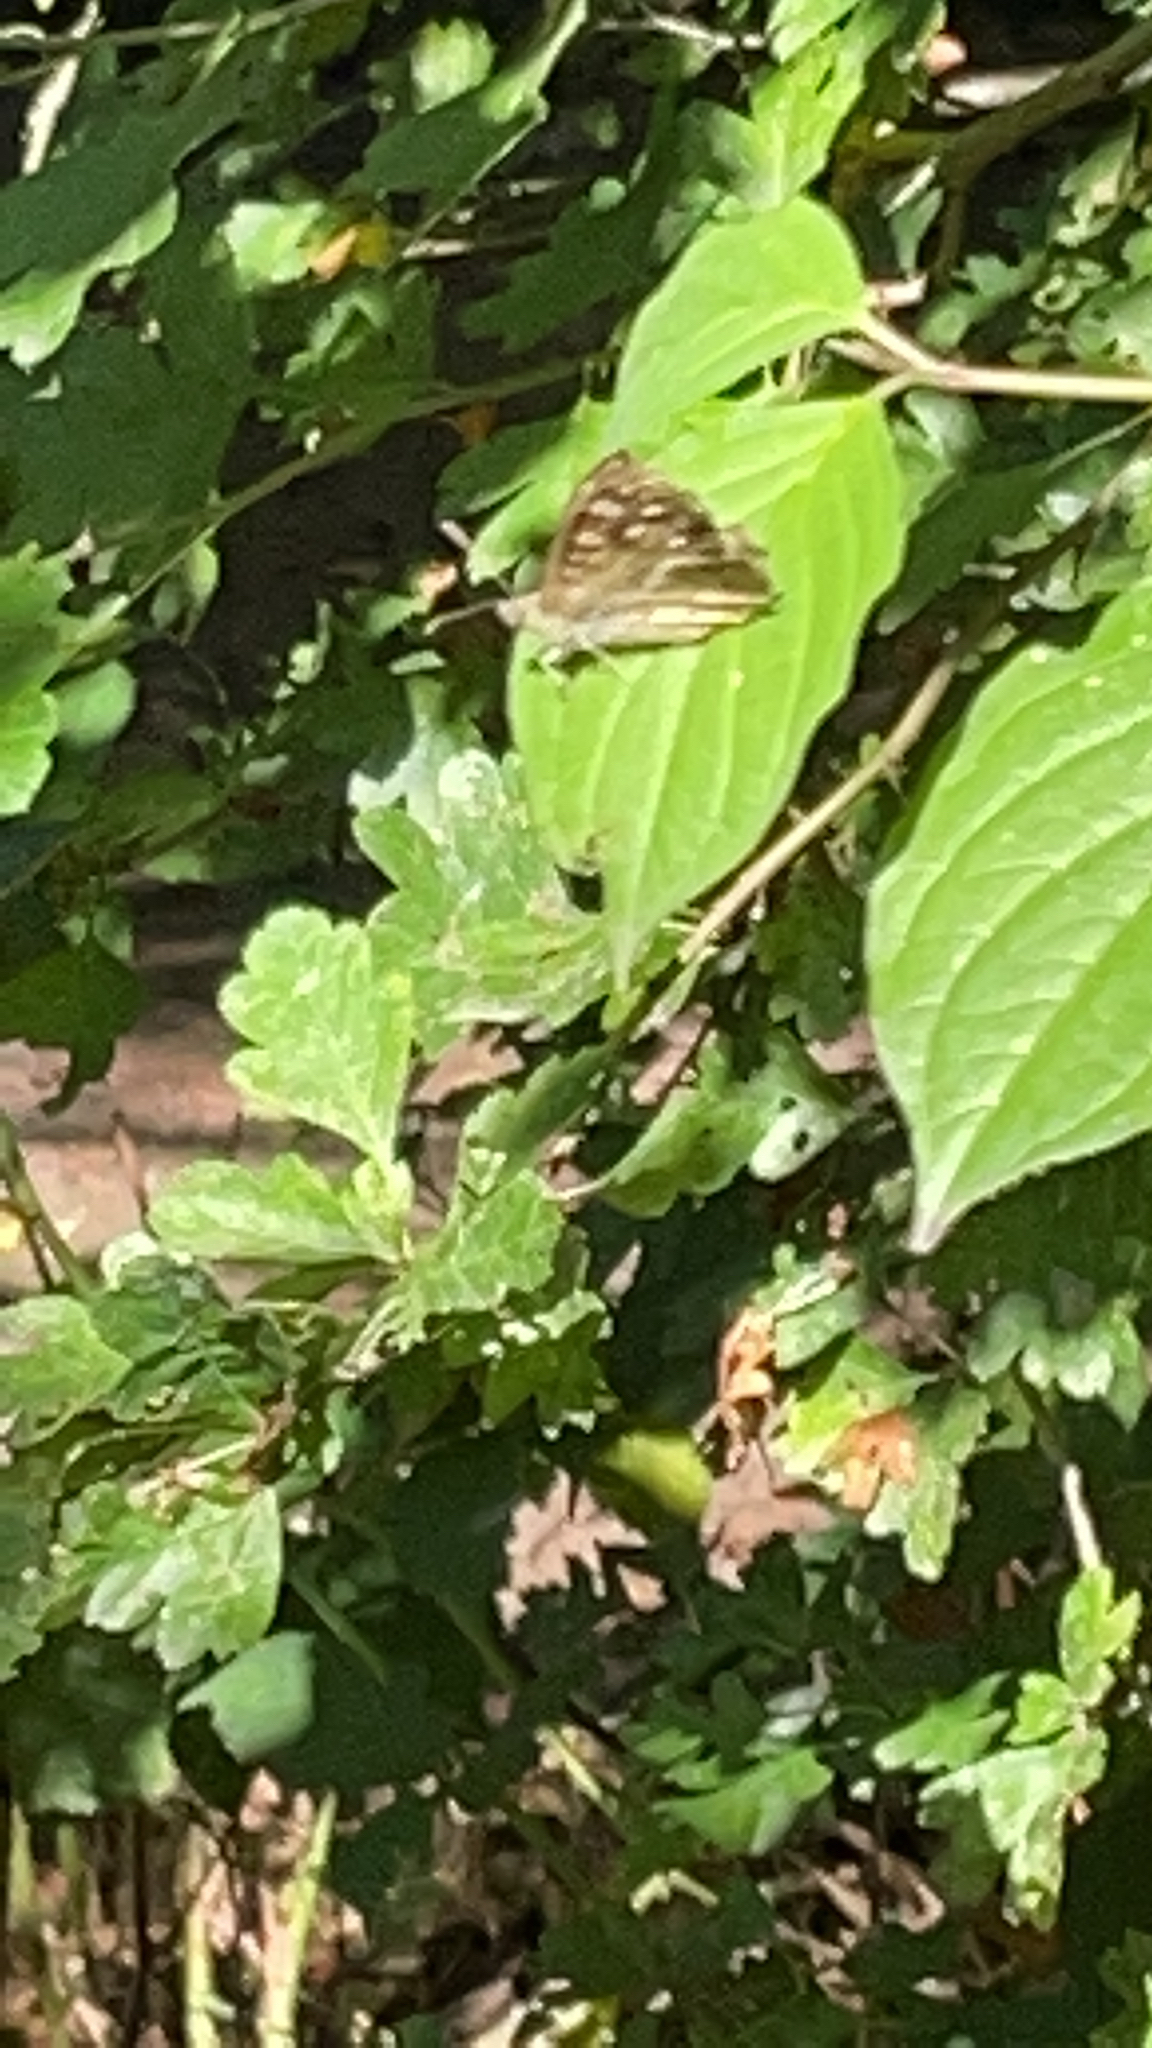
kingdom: Animalia
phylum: Arthropoda
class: Insecta
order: Lepidoptera
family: Nymphalidae
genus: Pararge
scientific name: Pararge aegeria
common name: Speckled wood
